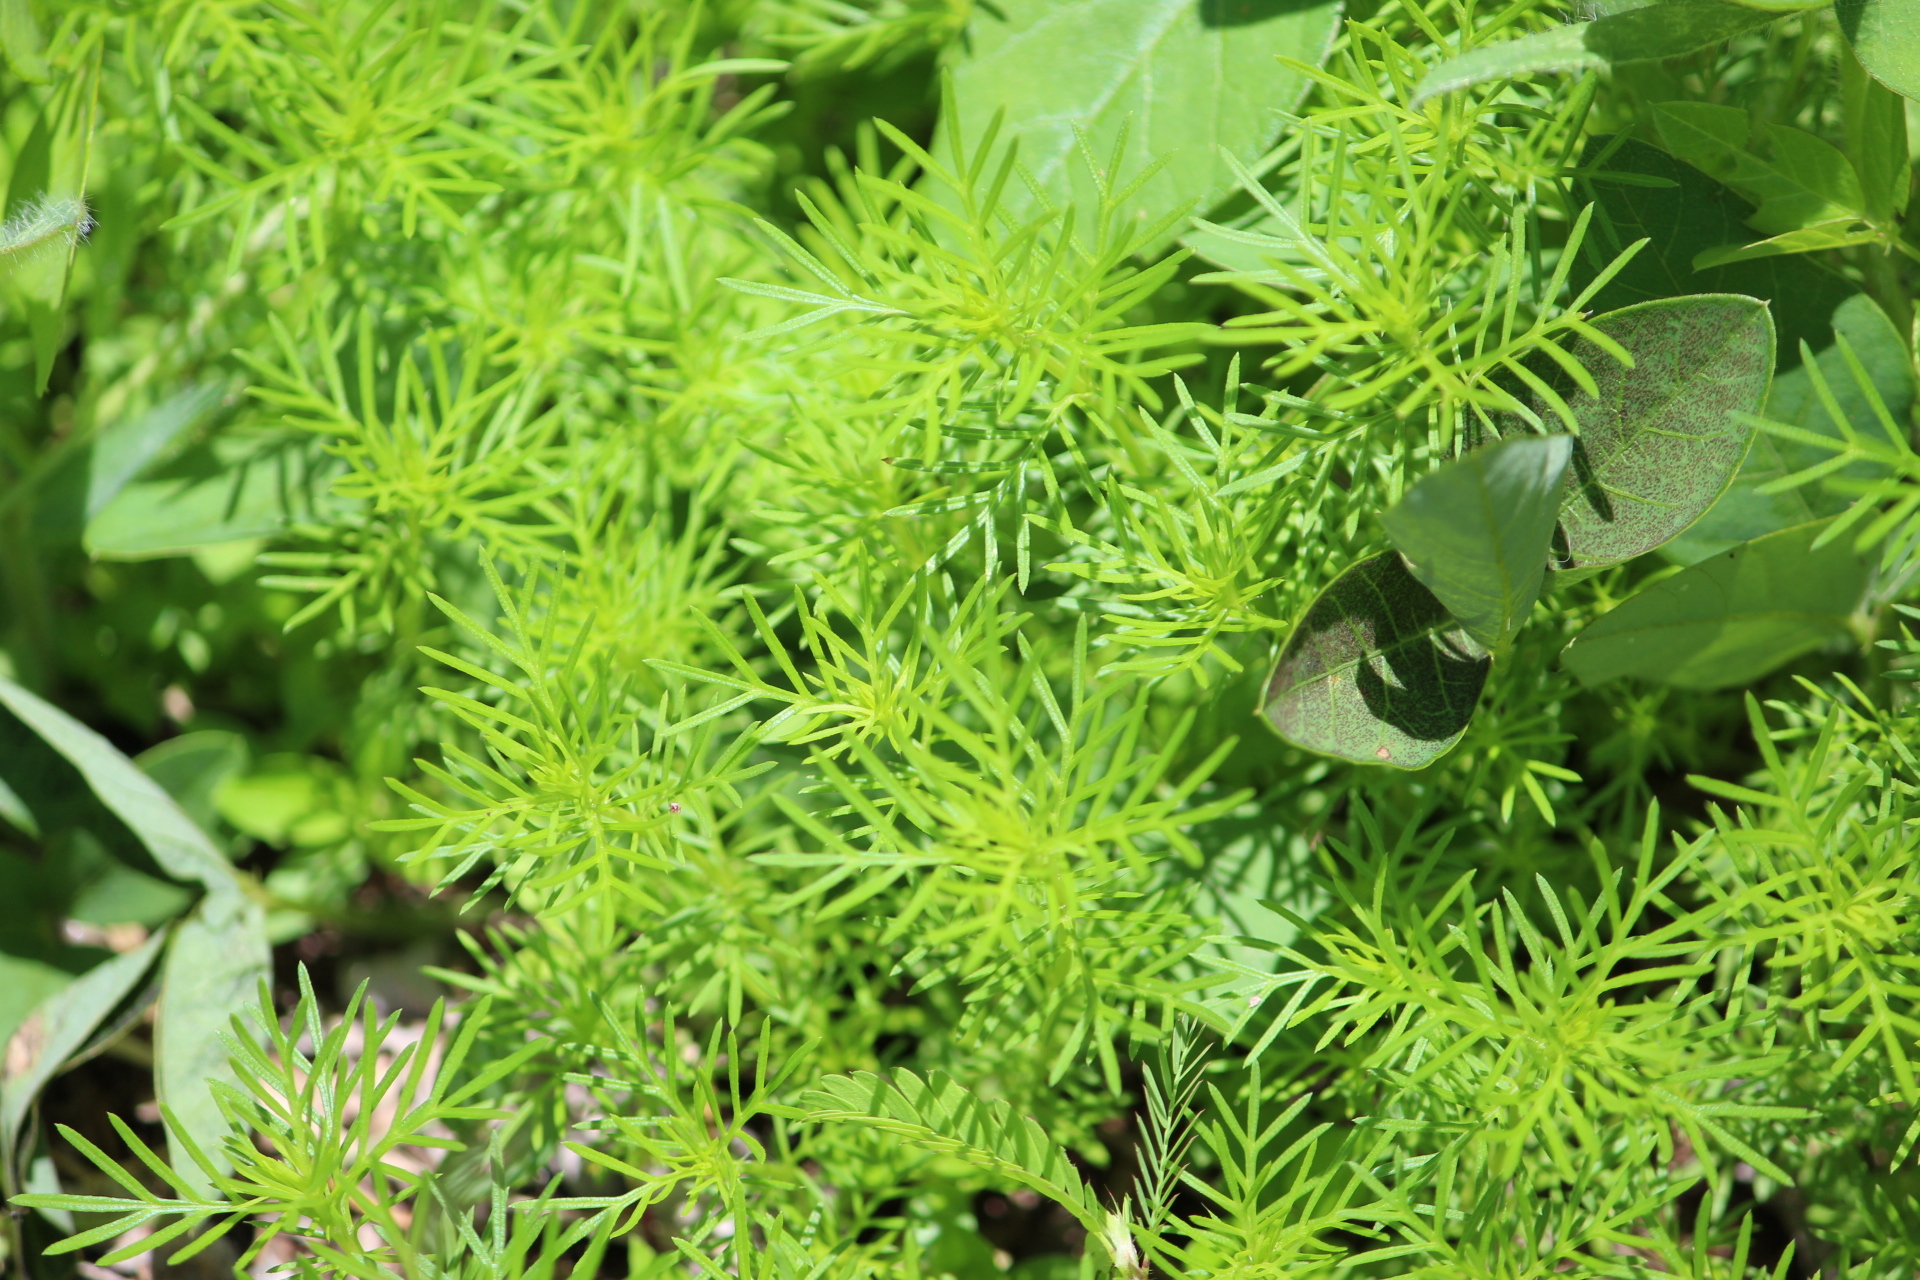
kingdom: Plantae
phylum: Tracheophyta
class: Magnoliopsida
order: Asterales
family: Asteraceae
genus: Tagetes
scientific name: Tagetes filifolia
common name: Lesser marigold
